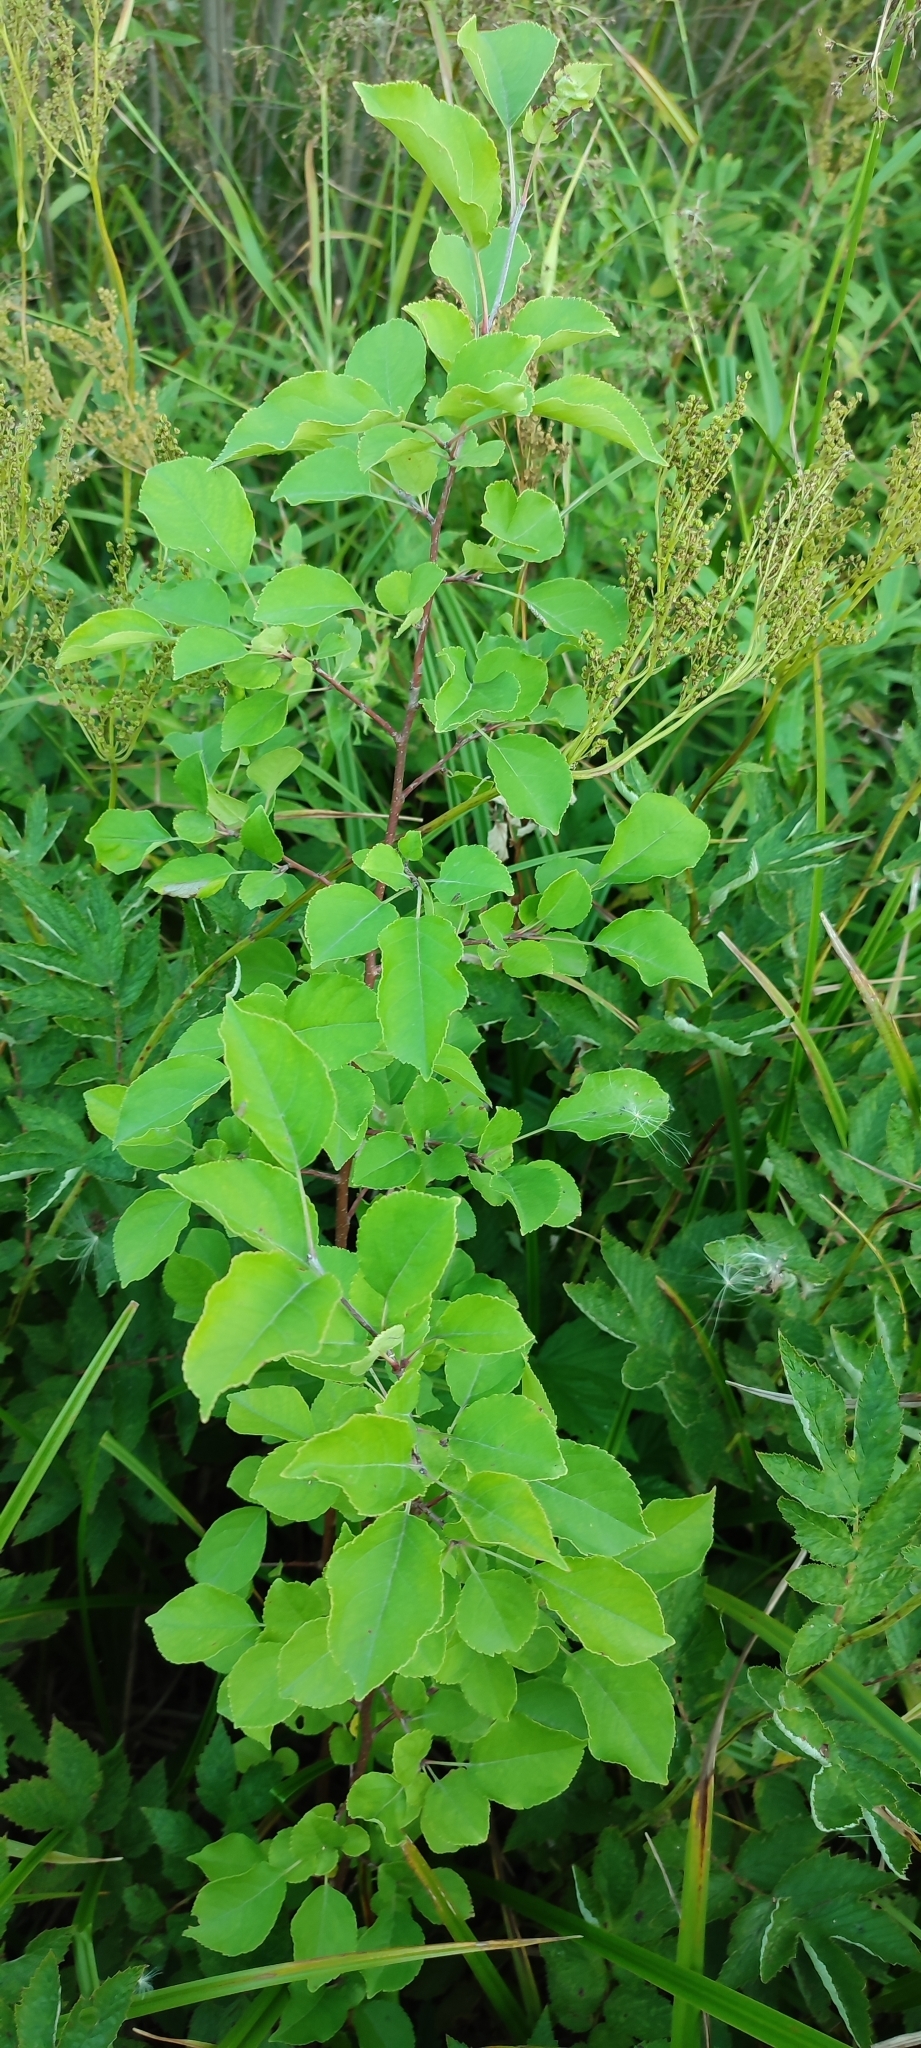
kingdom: Plantae
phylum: Tracheophyta
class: Magnoliopsida
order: Rosales
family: Rosaceae
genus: Malus
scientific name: Malus baccata
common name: Siberian crab
